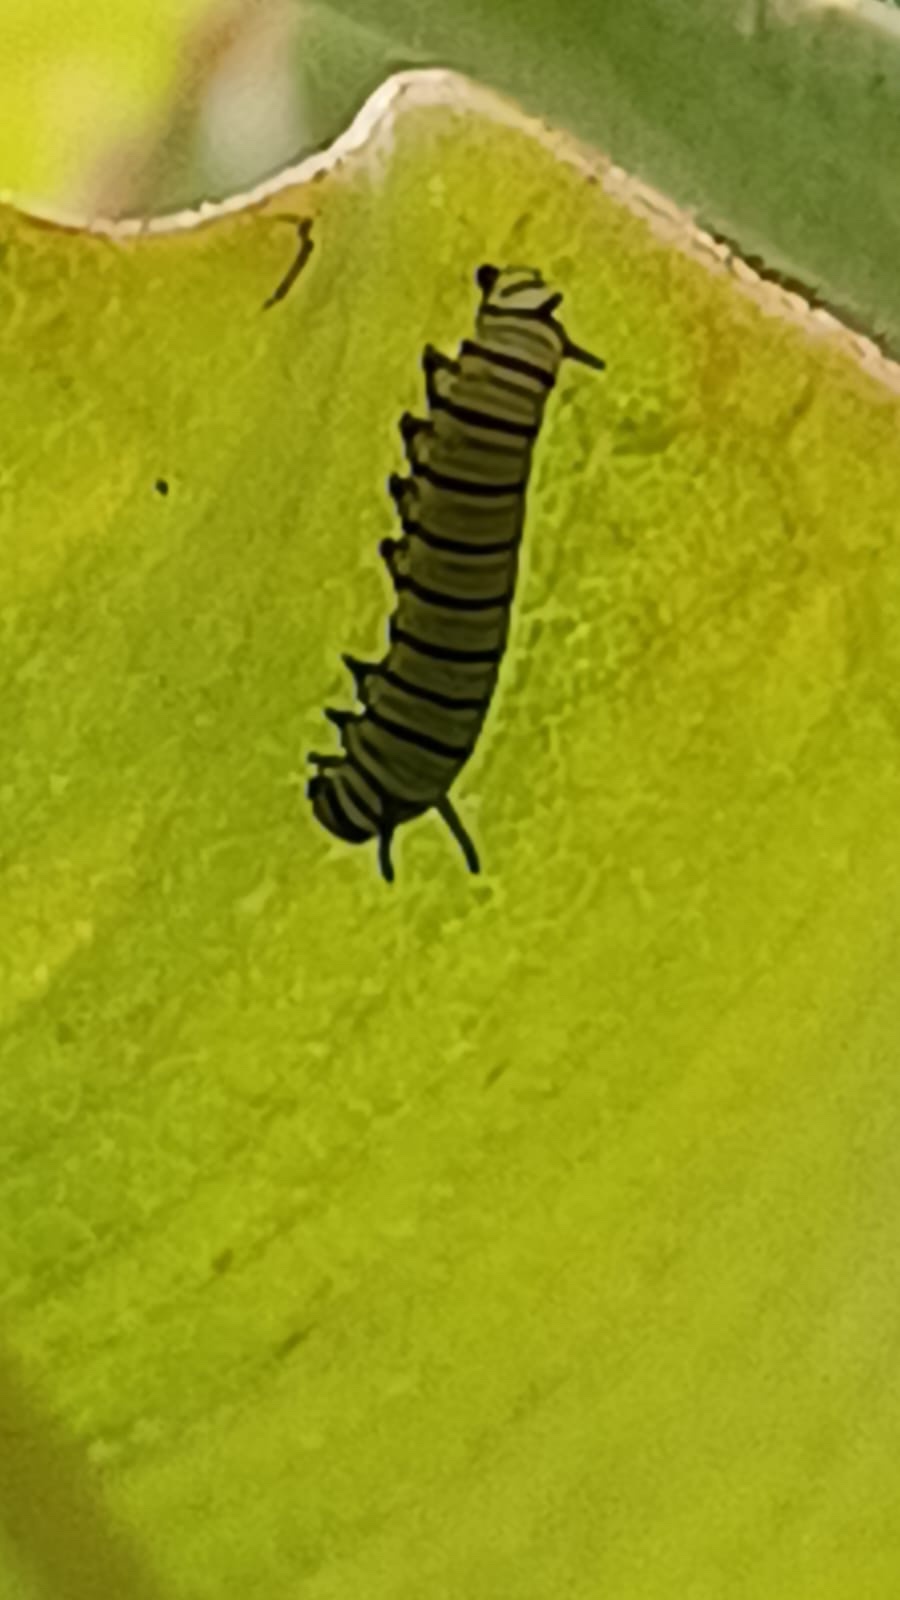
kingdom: Animalia
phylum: Arthropoda
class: Insecta
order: Lepidoptera
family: Nymphalidae
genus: Danaus
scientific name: Danaus plexippus
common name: Monarch
